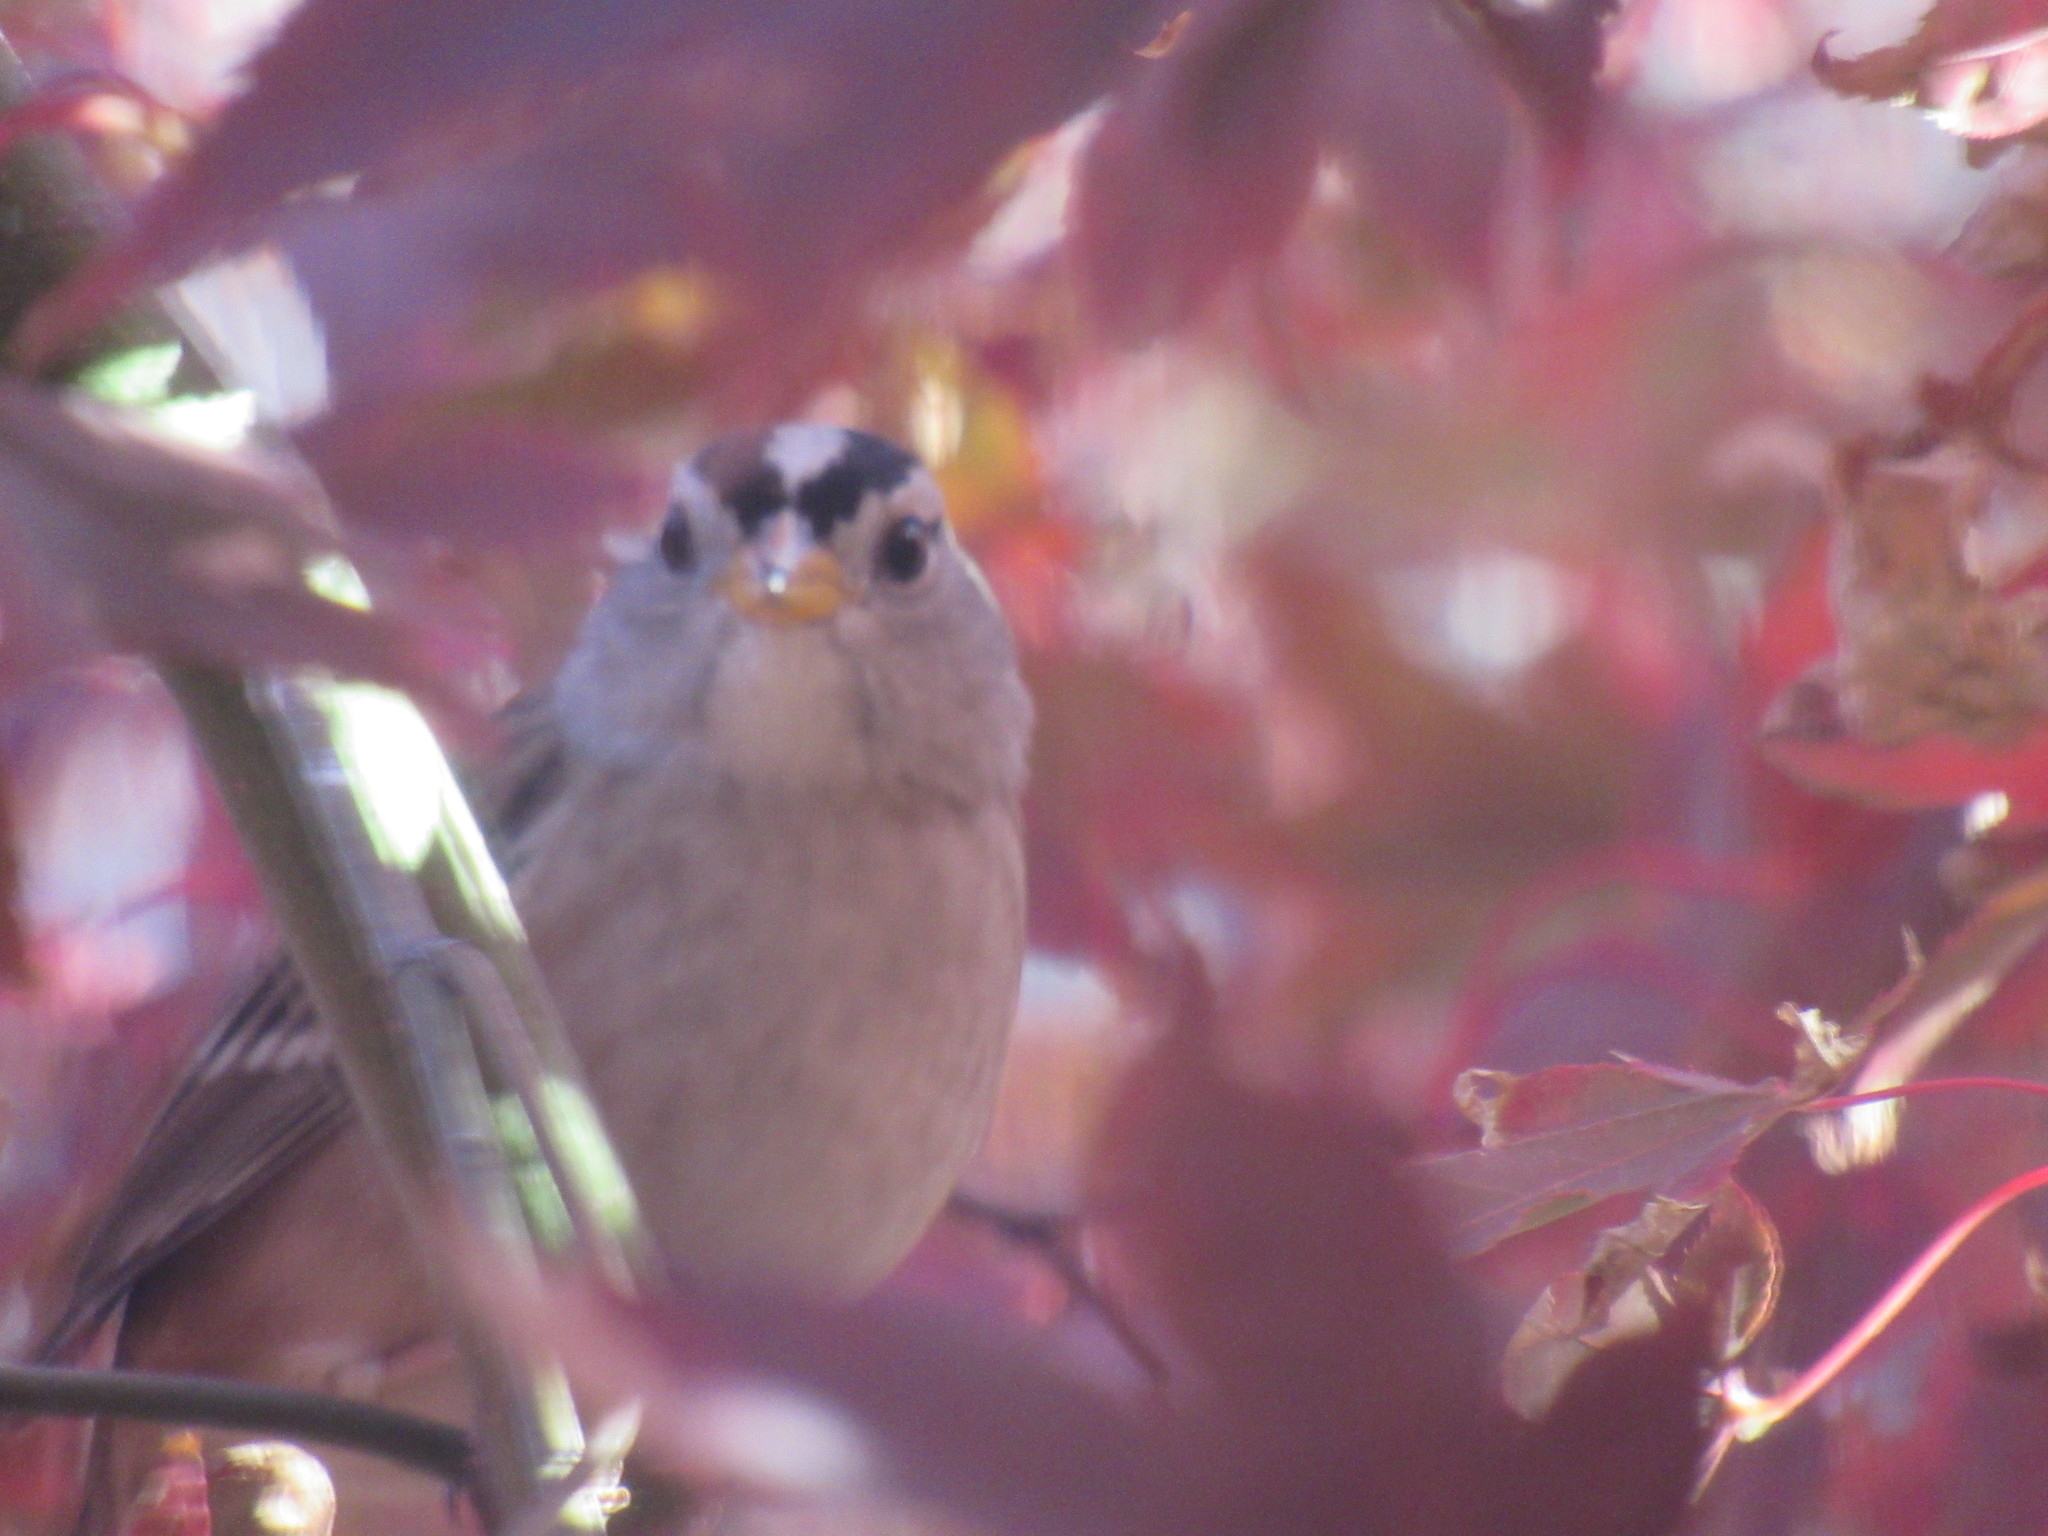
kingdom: Animalia
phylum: Chordata
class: Aves
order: Passeriformes
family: Passerellidae
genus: Zonotrichia
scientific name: Zonotrichia leucophrys
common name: White-crowned sparrow
